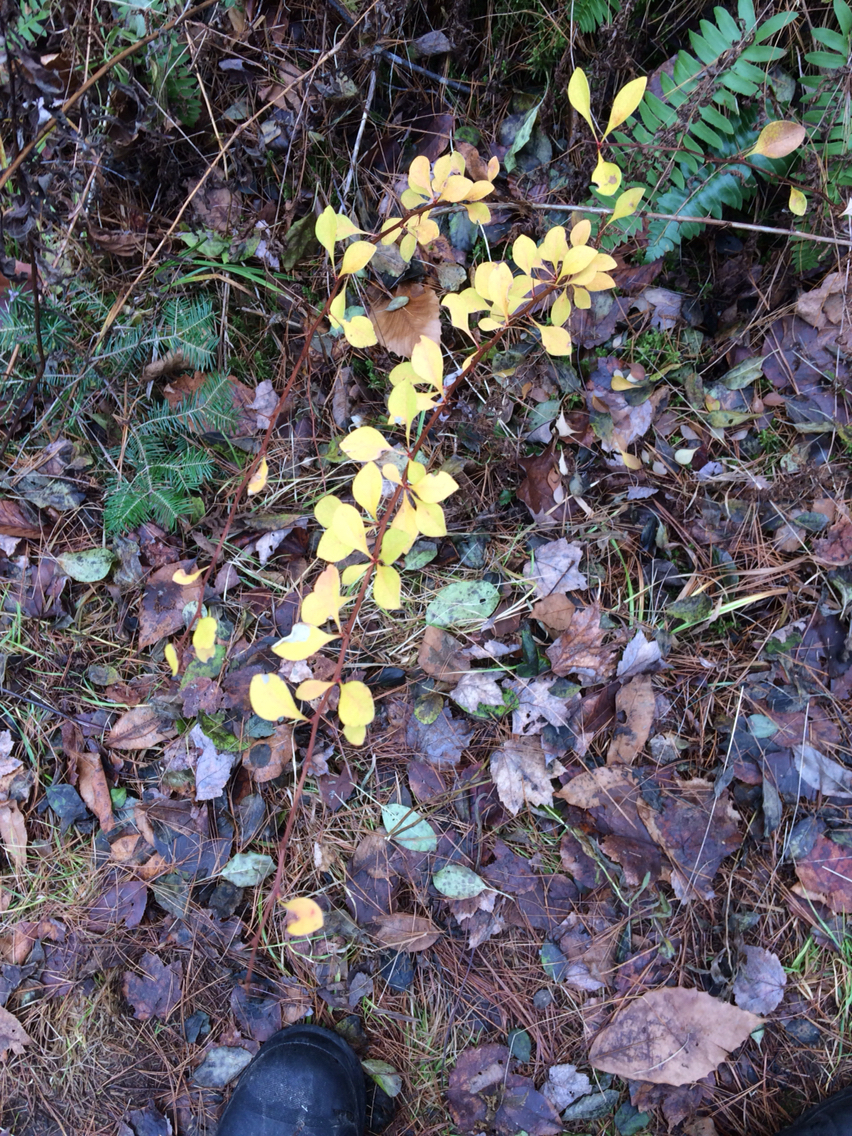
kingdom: Plantae
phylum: Tracheophyta
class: Magnoliopsida
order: Ranunculales
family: Berberidaceae
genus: Berberis
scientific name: Berberis thunbergii
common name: Japanese barberry
